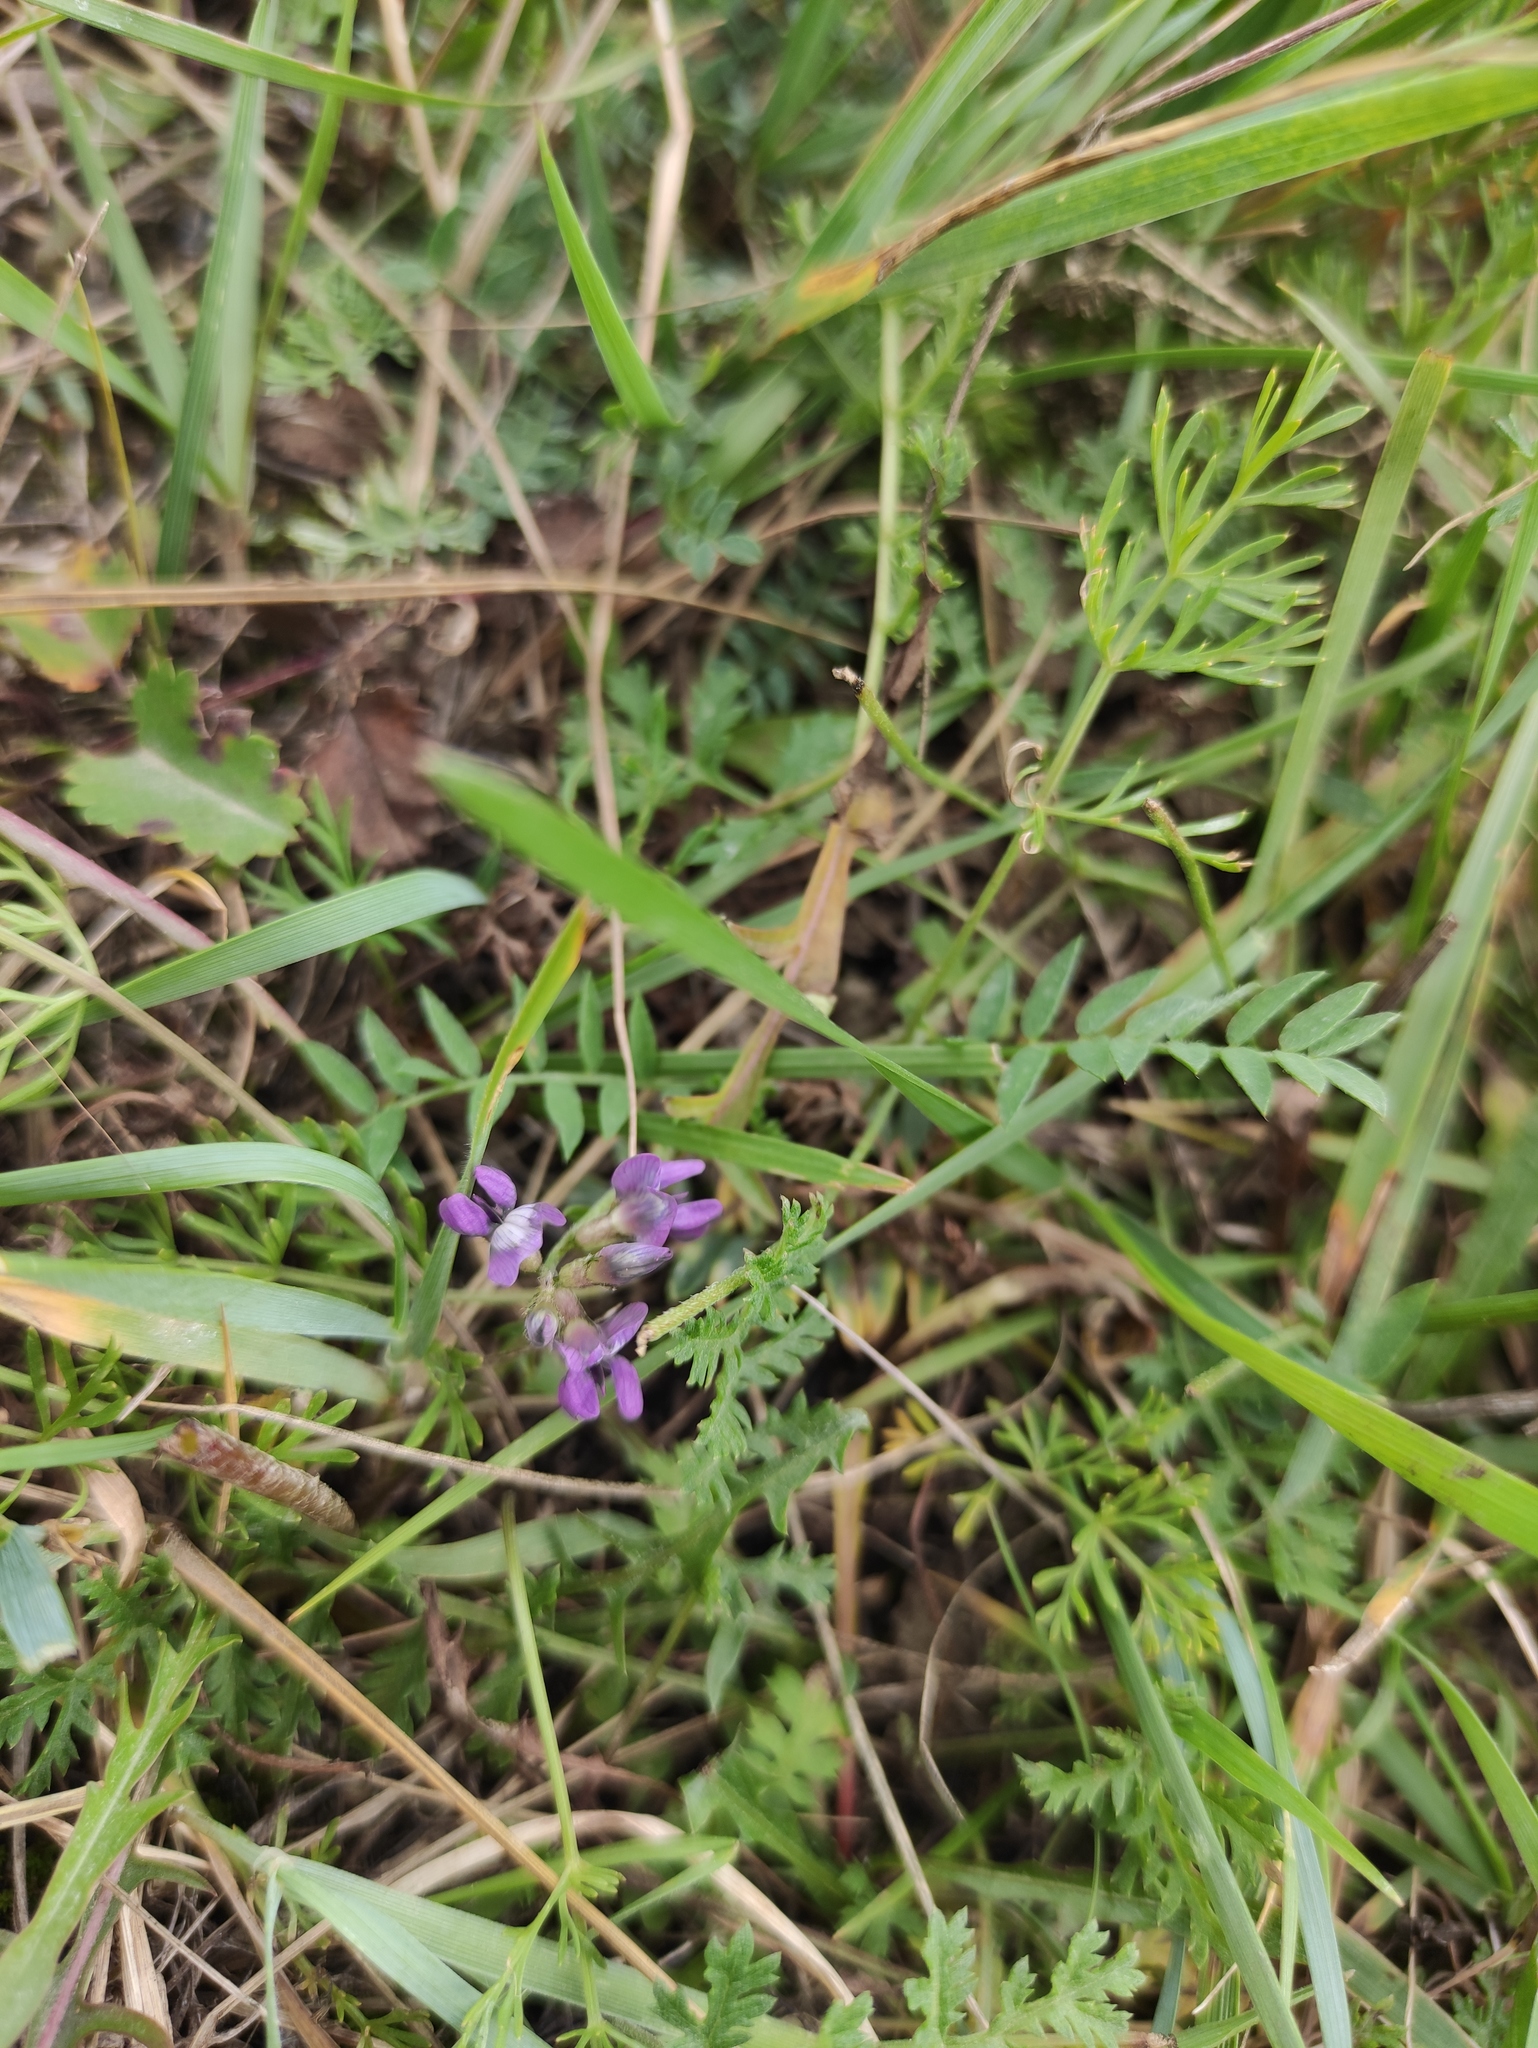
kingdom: Plantae
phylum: Tracheophyta
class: Magnoliopsida
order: Fabales
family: Fabaceae
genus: Astragalus
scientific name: Astragalus syriacus
